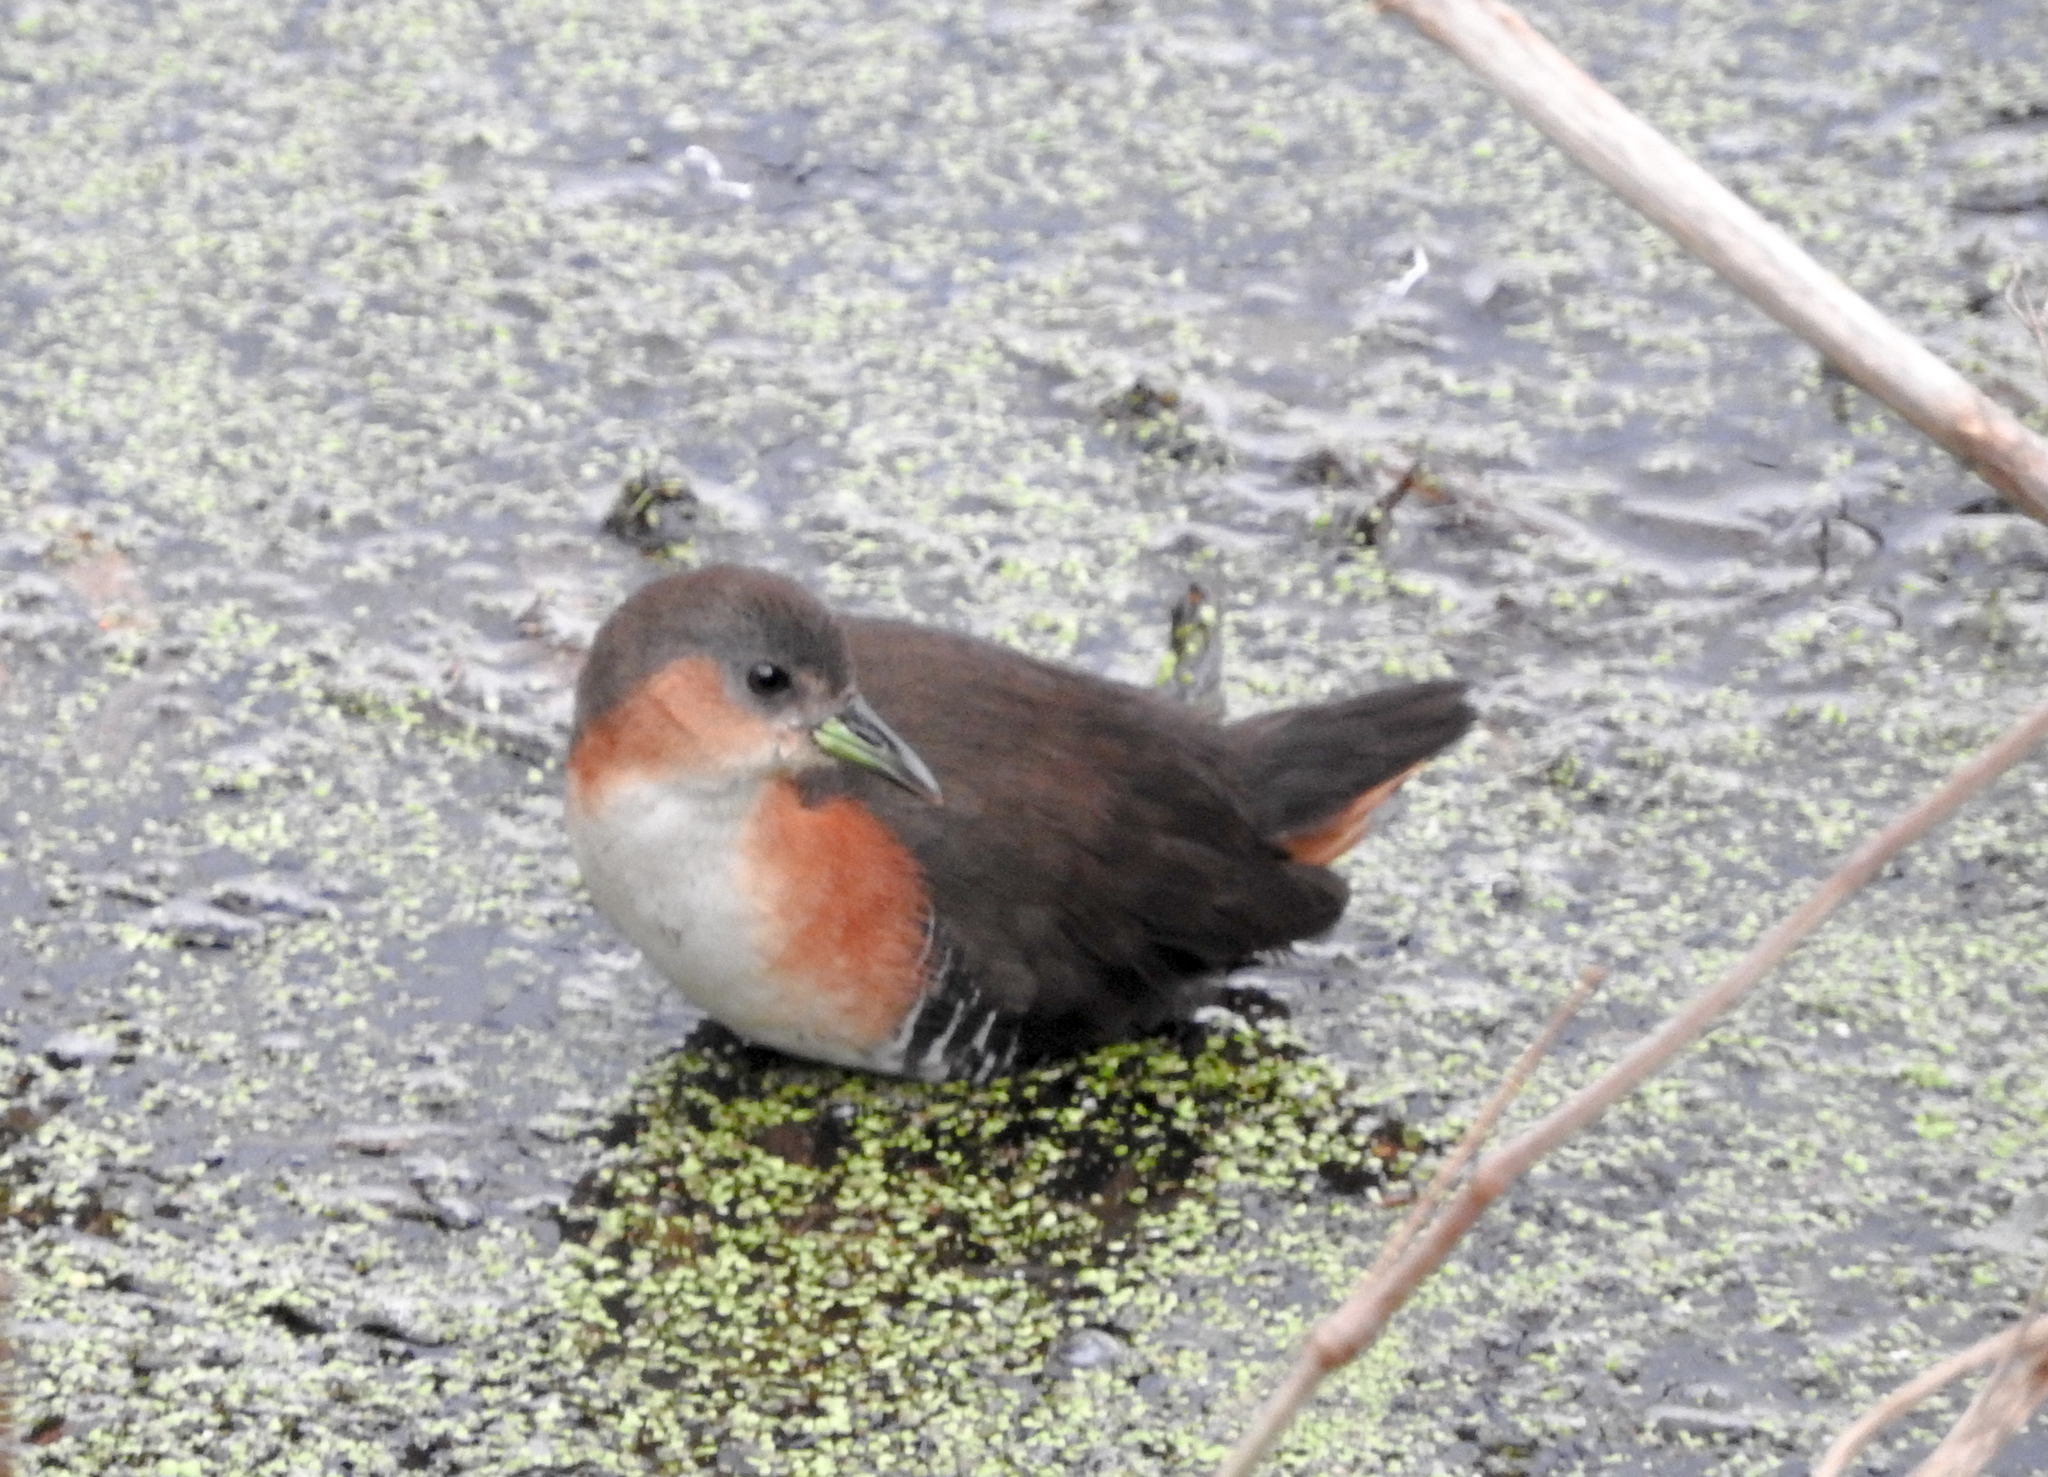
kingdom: Animalia
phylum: Chordata
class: Aves
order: Gruiformes
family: Rallidae
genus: Laterallus
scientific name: Laterallus melanophaius
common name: Rufous-sided crake
